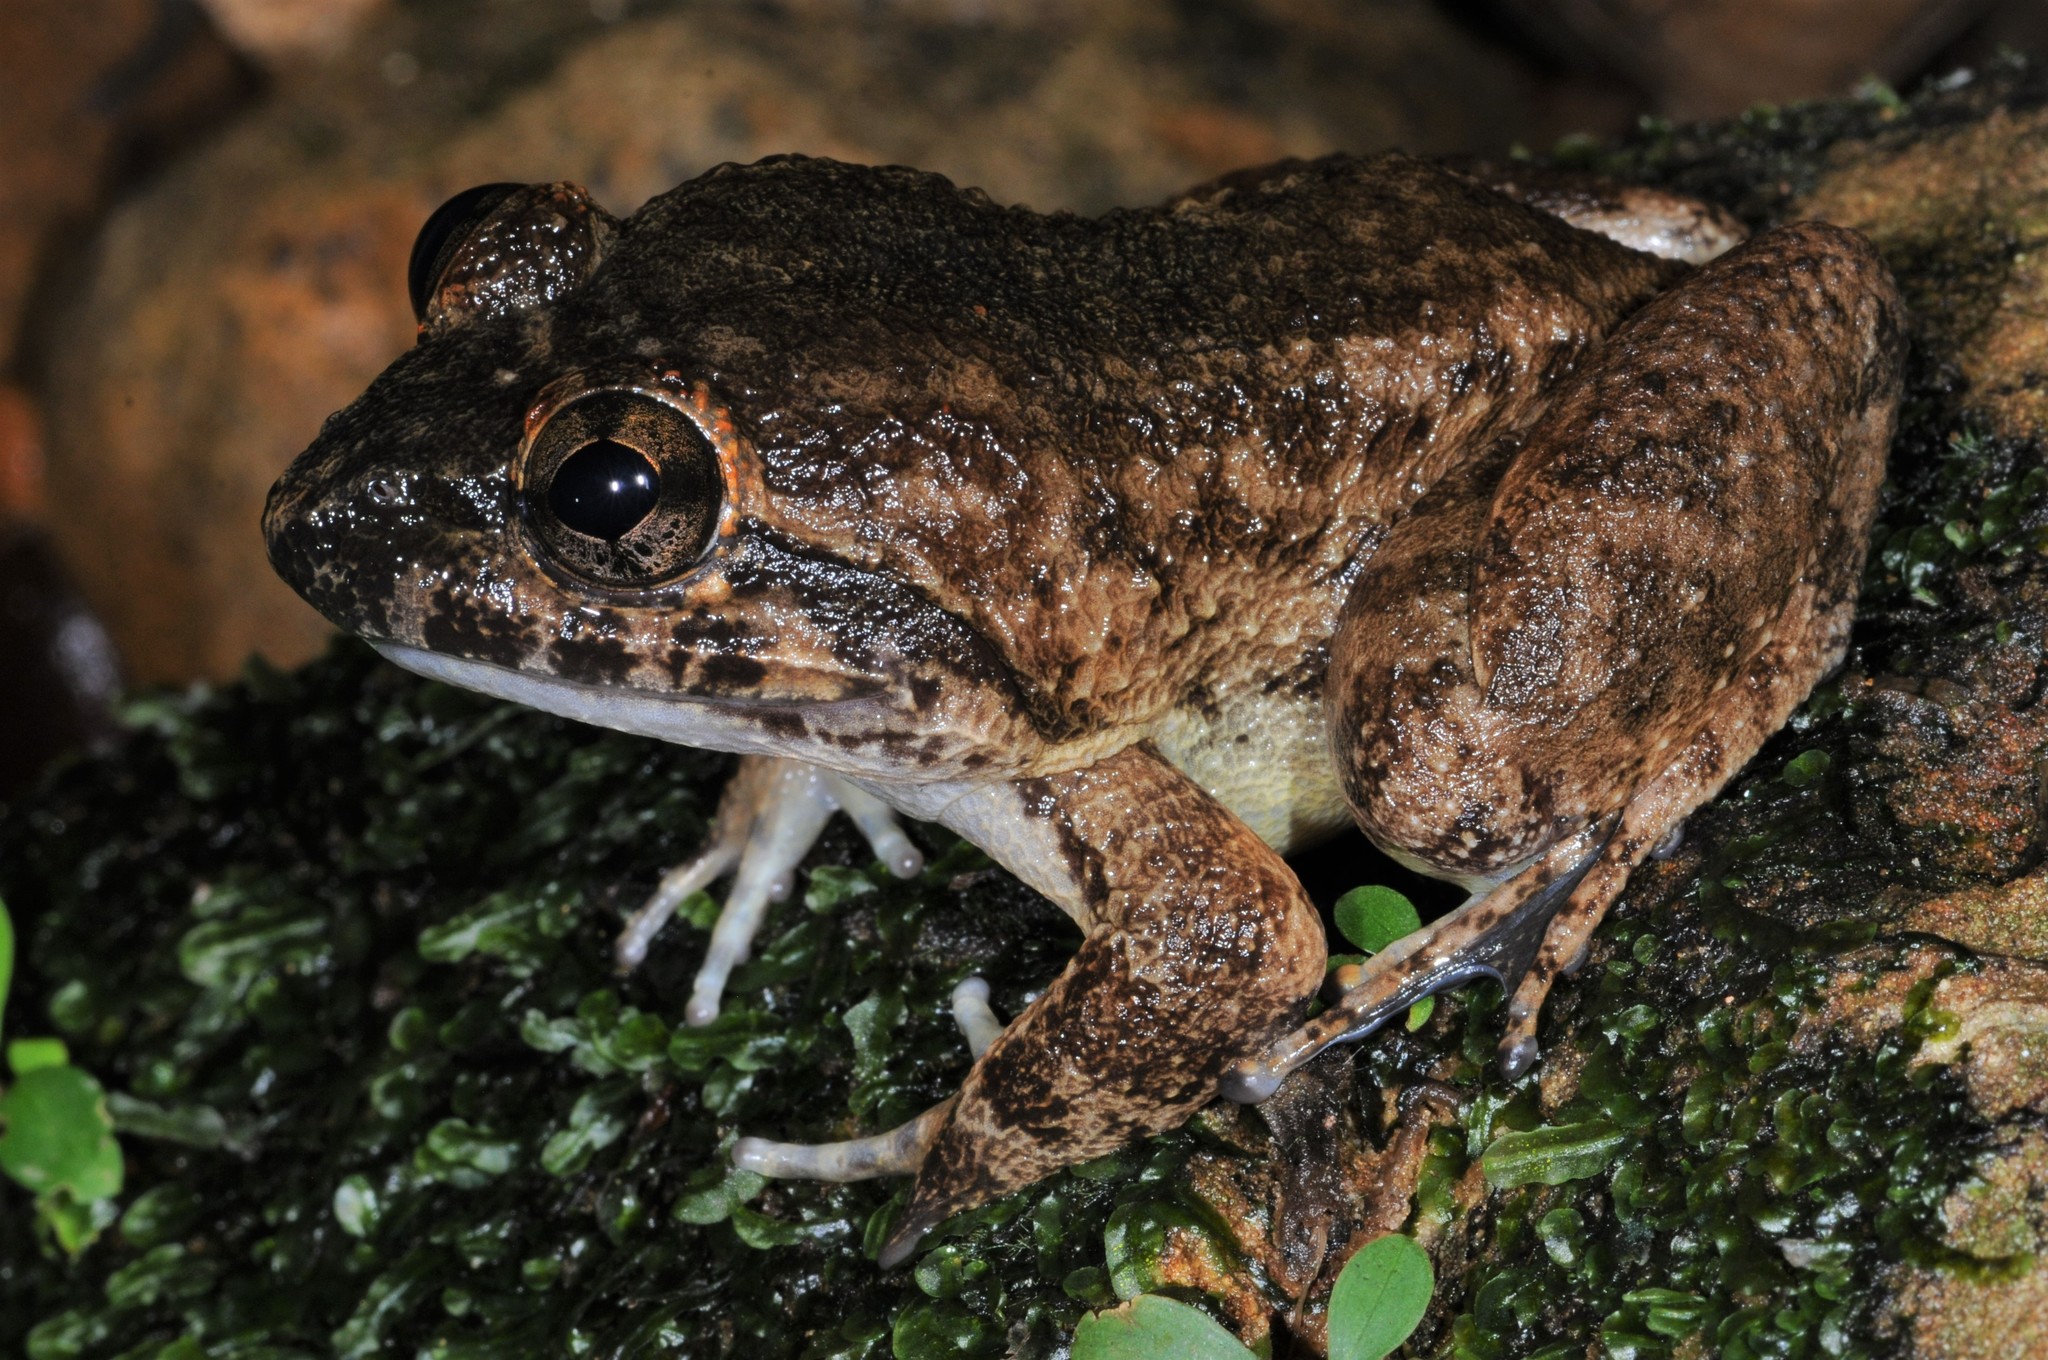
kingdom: Animalia
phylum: Chordata
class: Amphibia
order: Anura
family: Dicroglossidae
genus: Limnonectes
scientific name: Limnonectes kong
